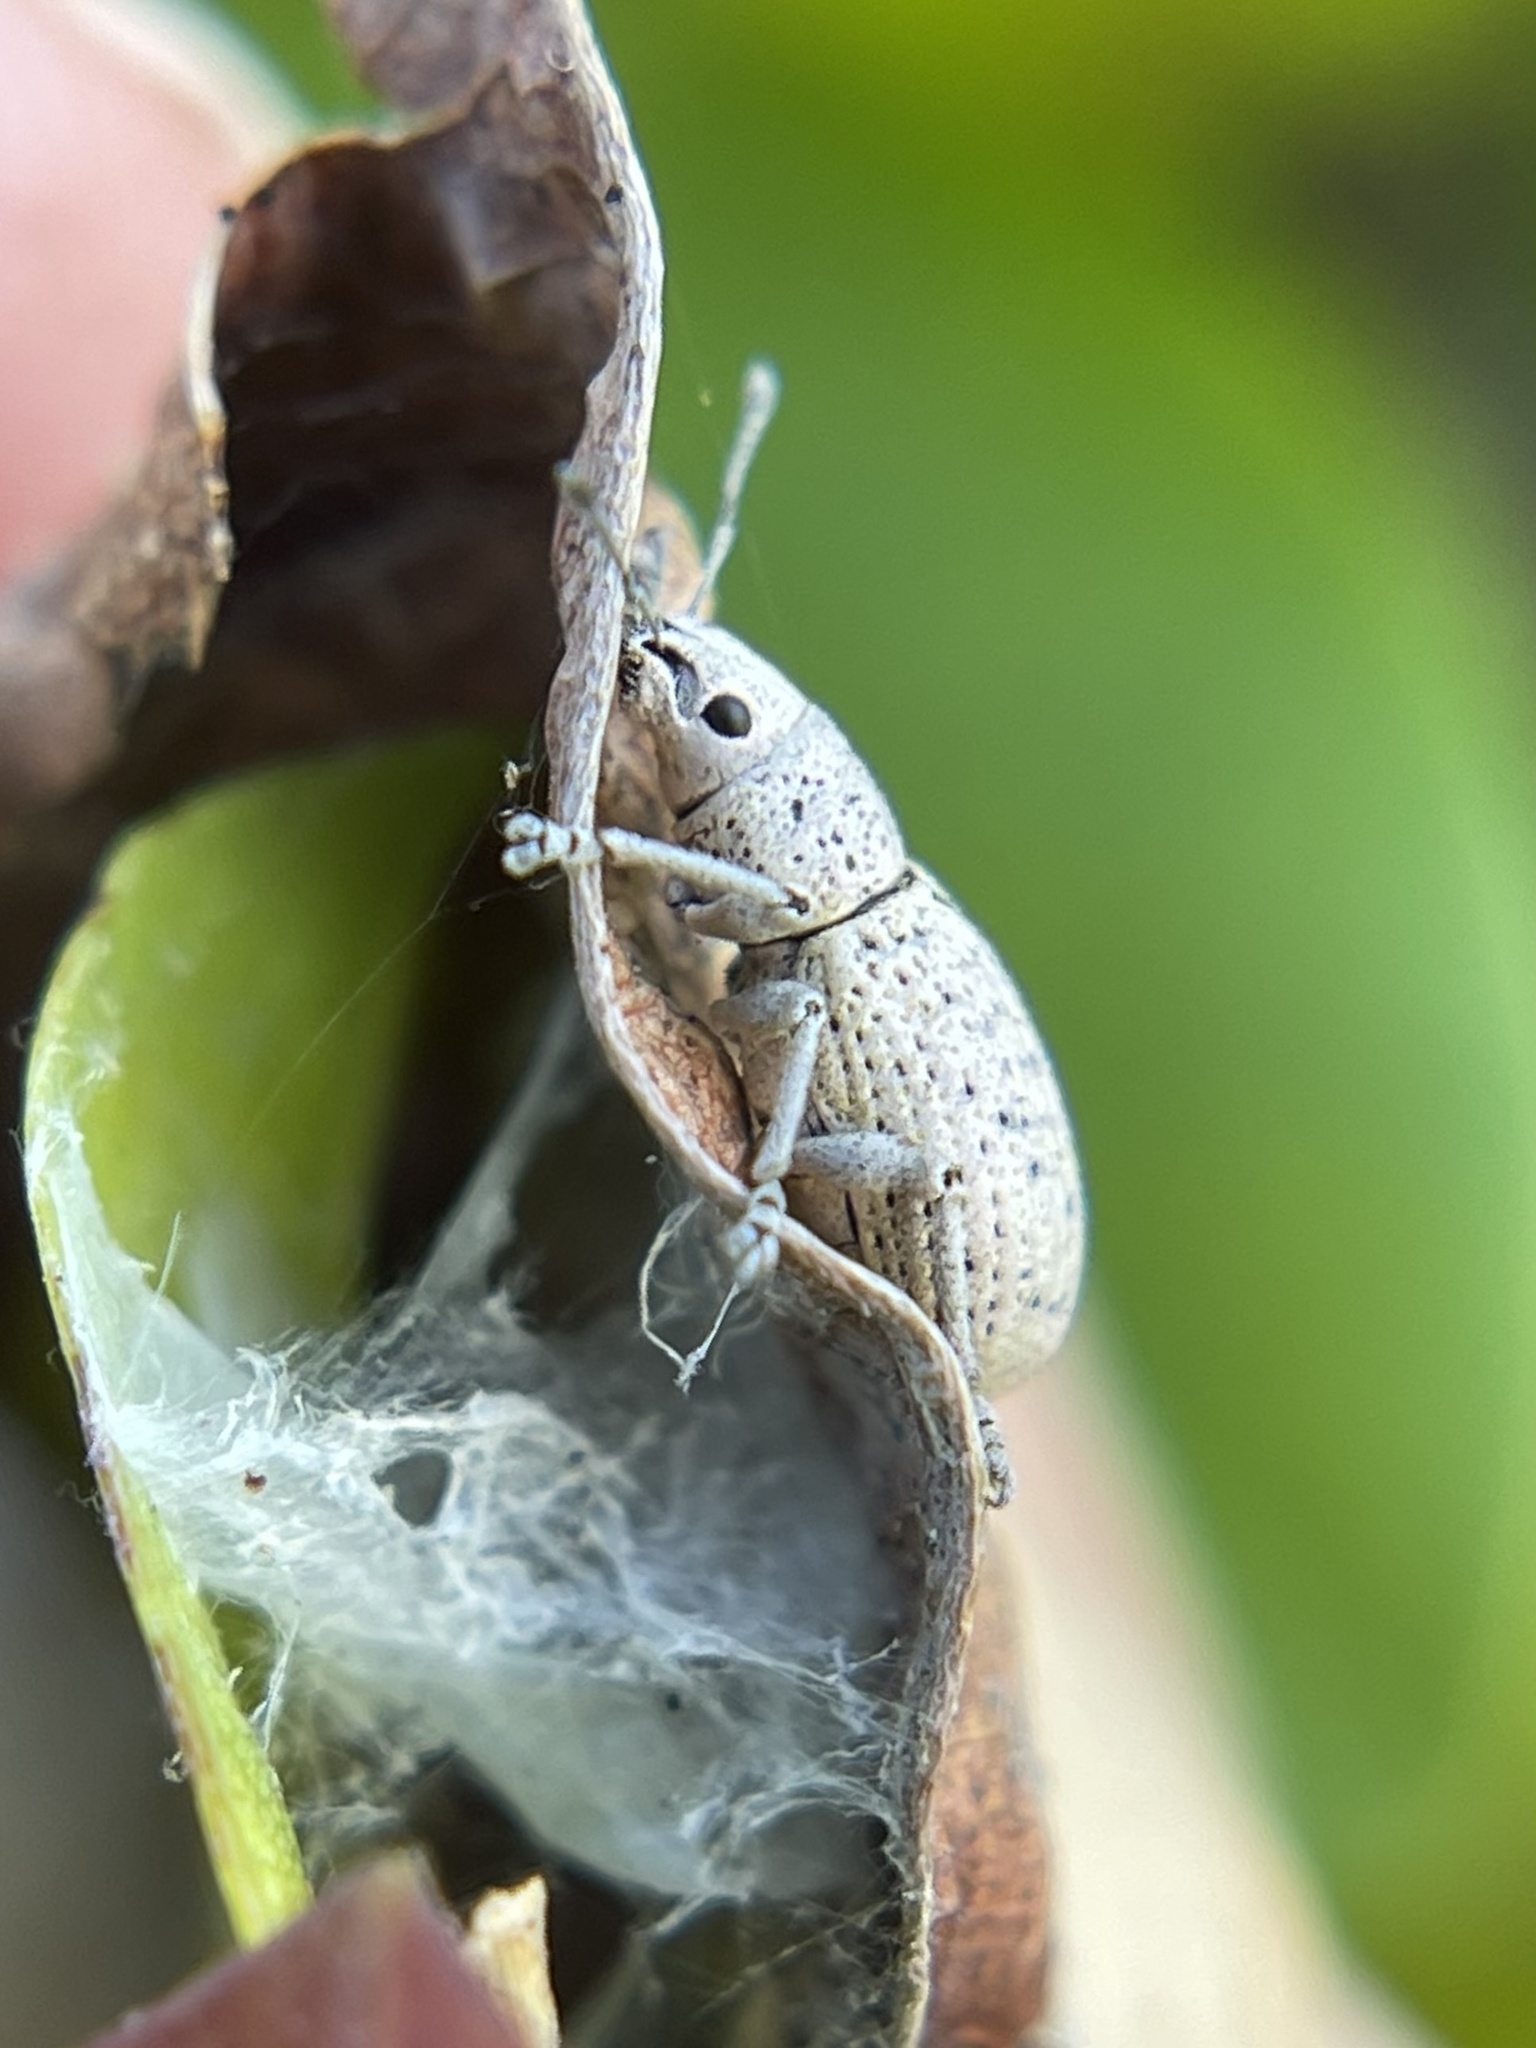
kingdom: Animalia
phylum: Arthropoda
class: Insecta
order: Coleoptera
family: Curculionidae
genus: Artipus
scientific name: Artipus floridanus
